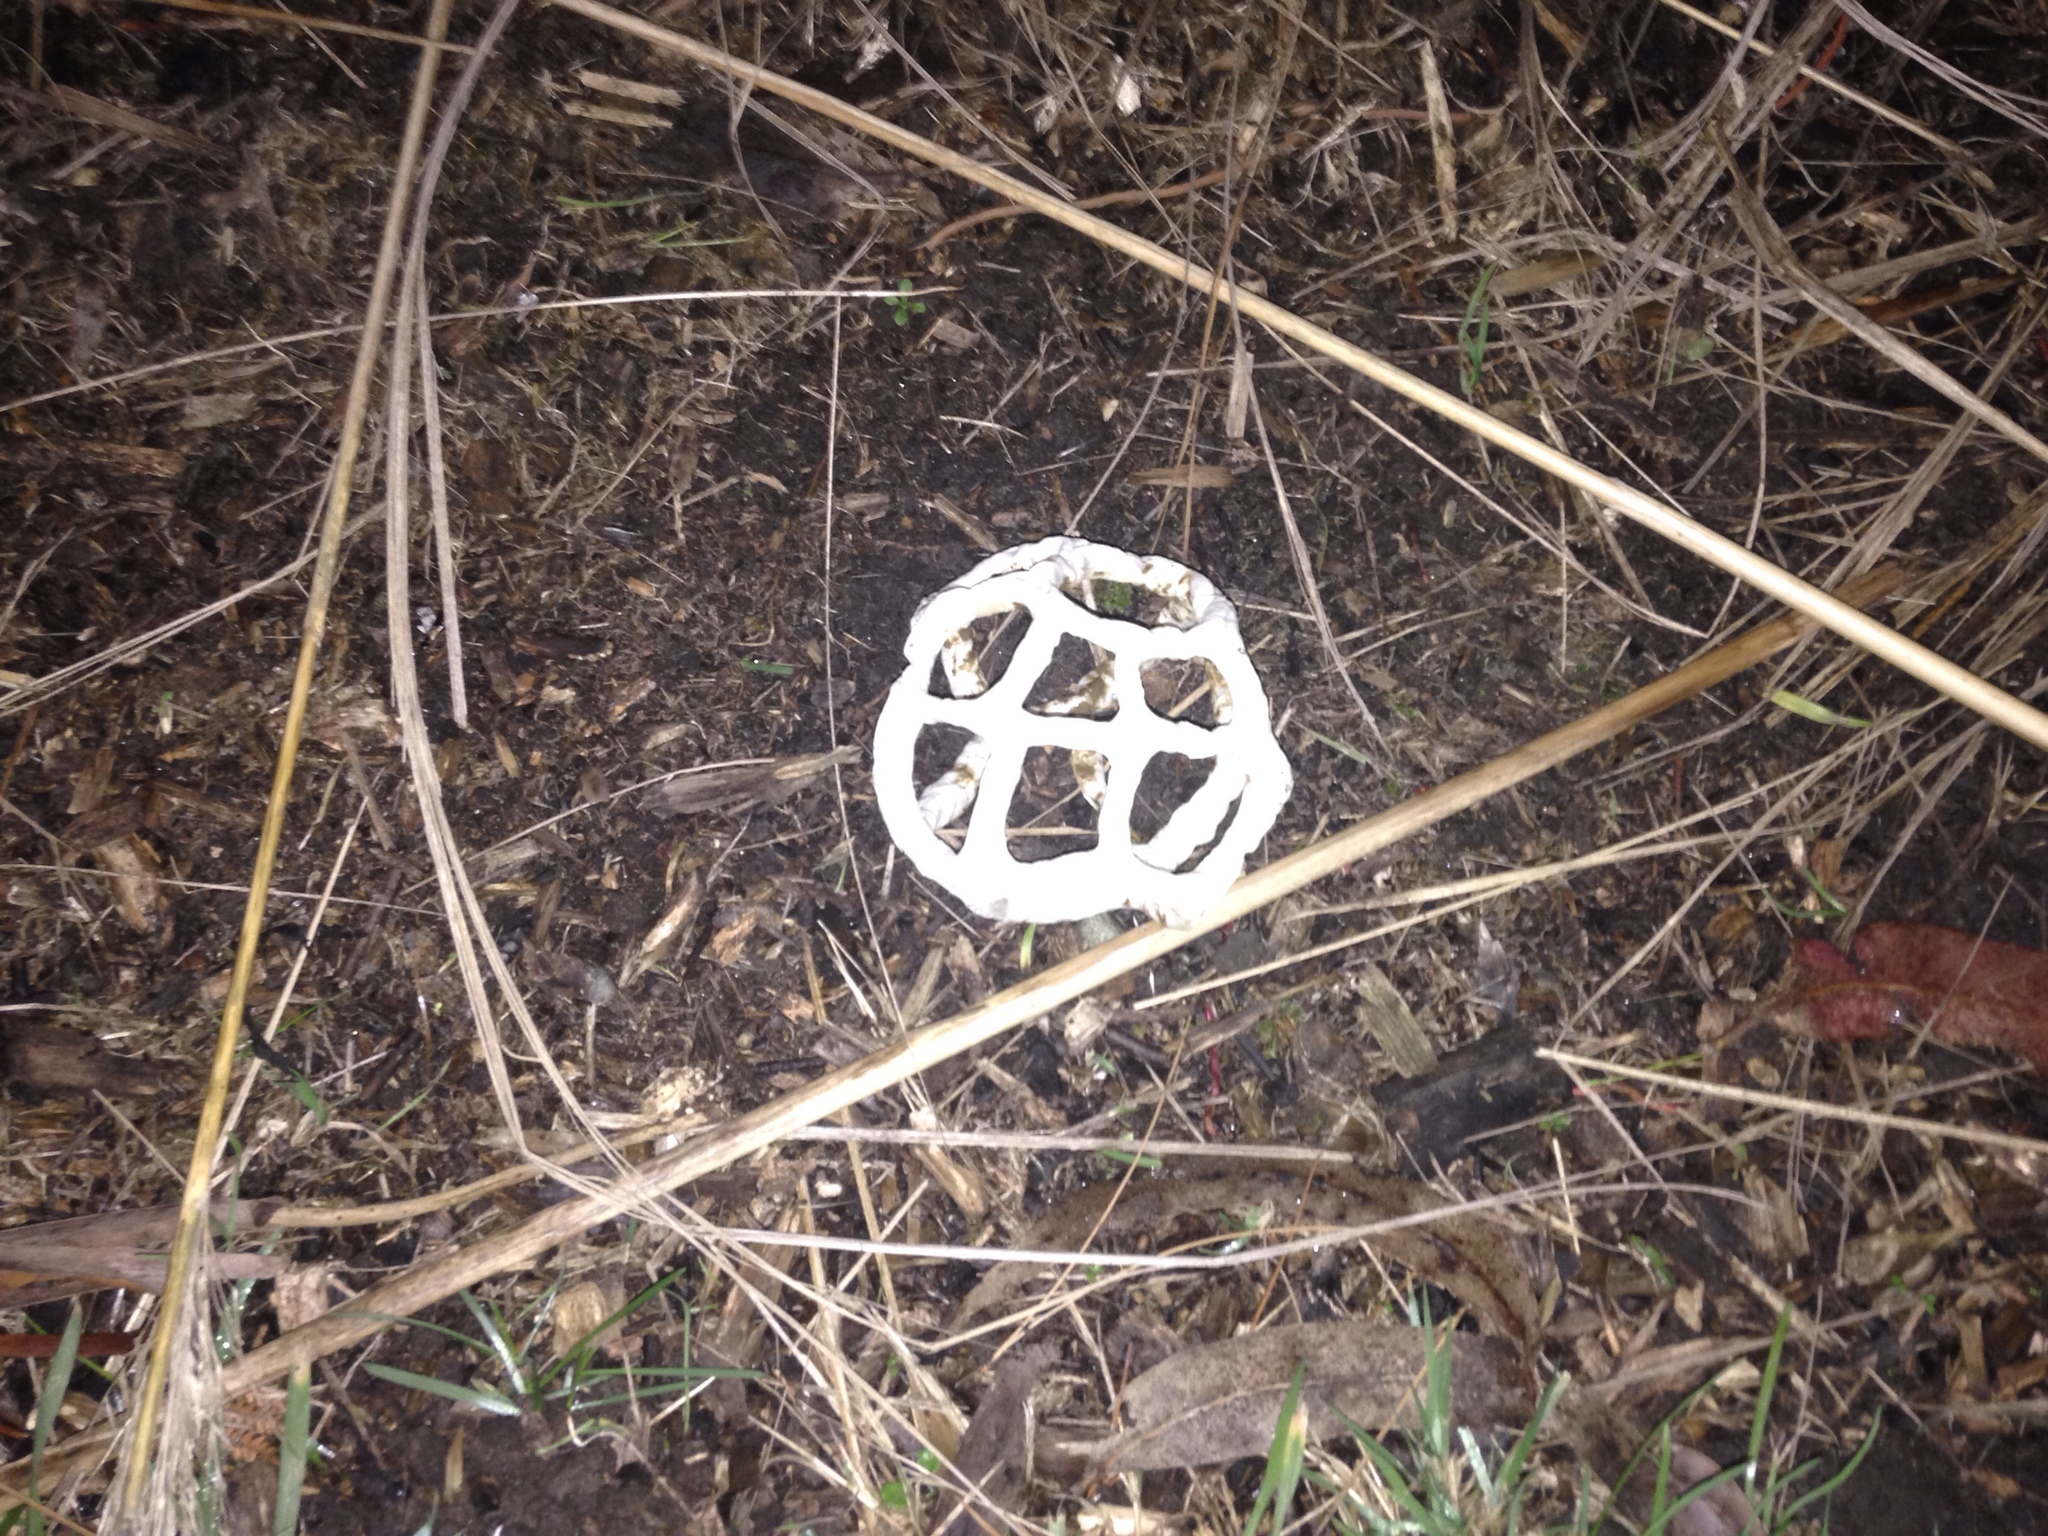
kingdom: Fungi
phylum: Basidiomycota
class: Agaricomycetes
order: Phallales
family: Phallaceae
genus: Ileodictyon
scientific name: Ileodictyon cibarium
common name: Basket fungus
